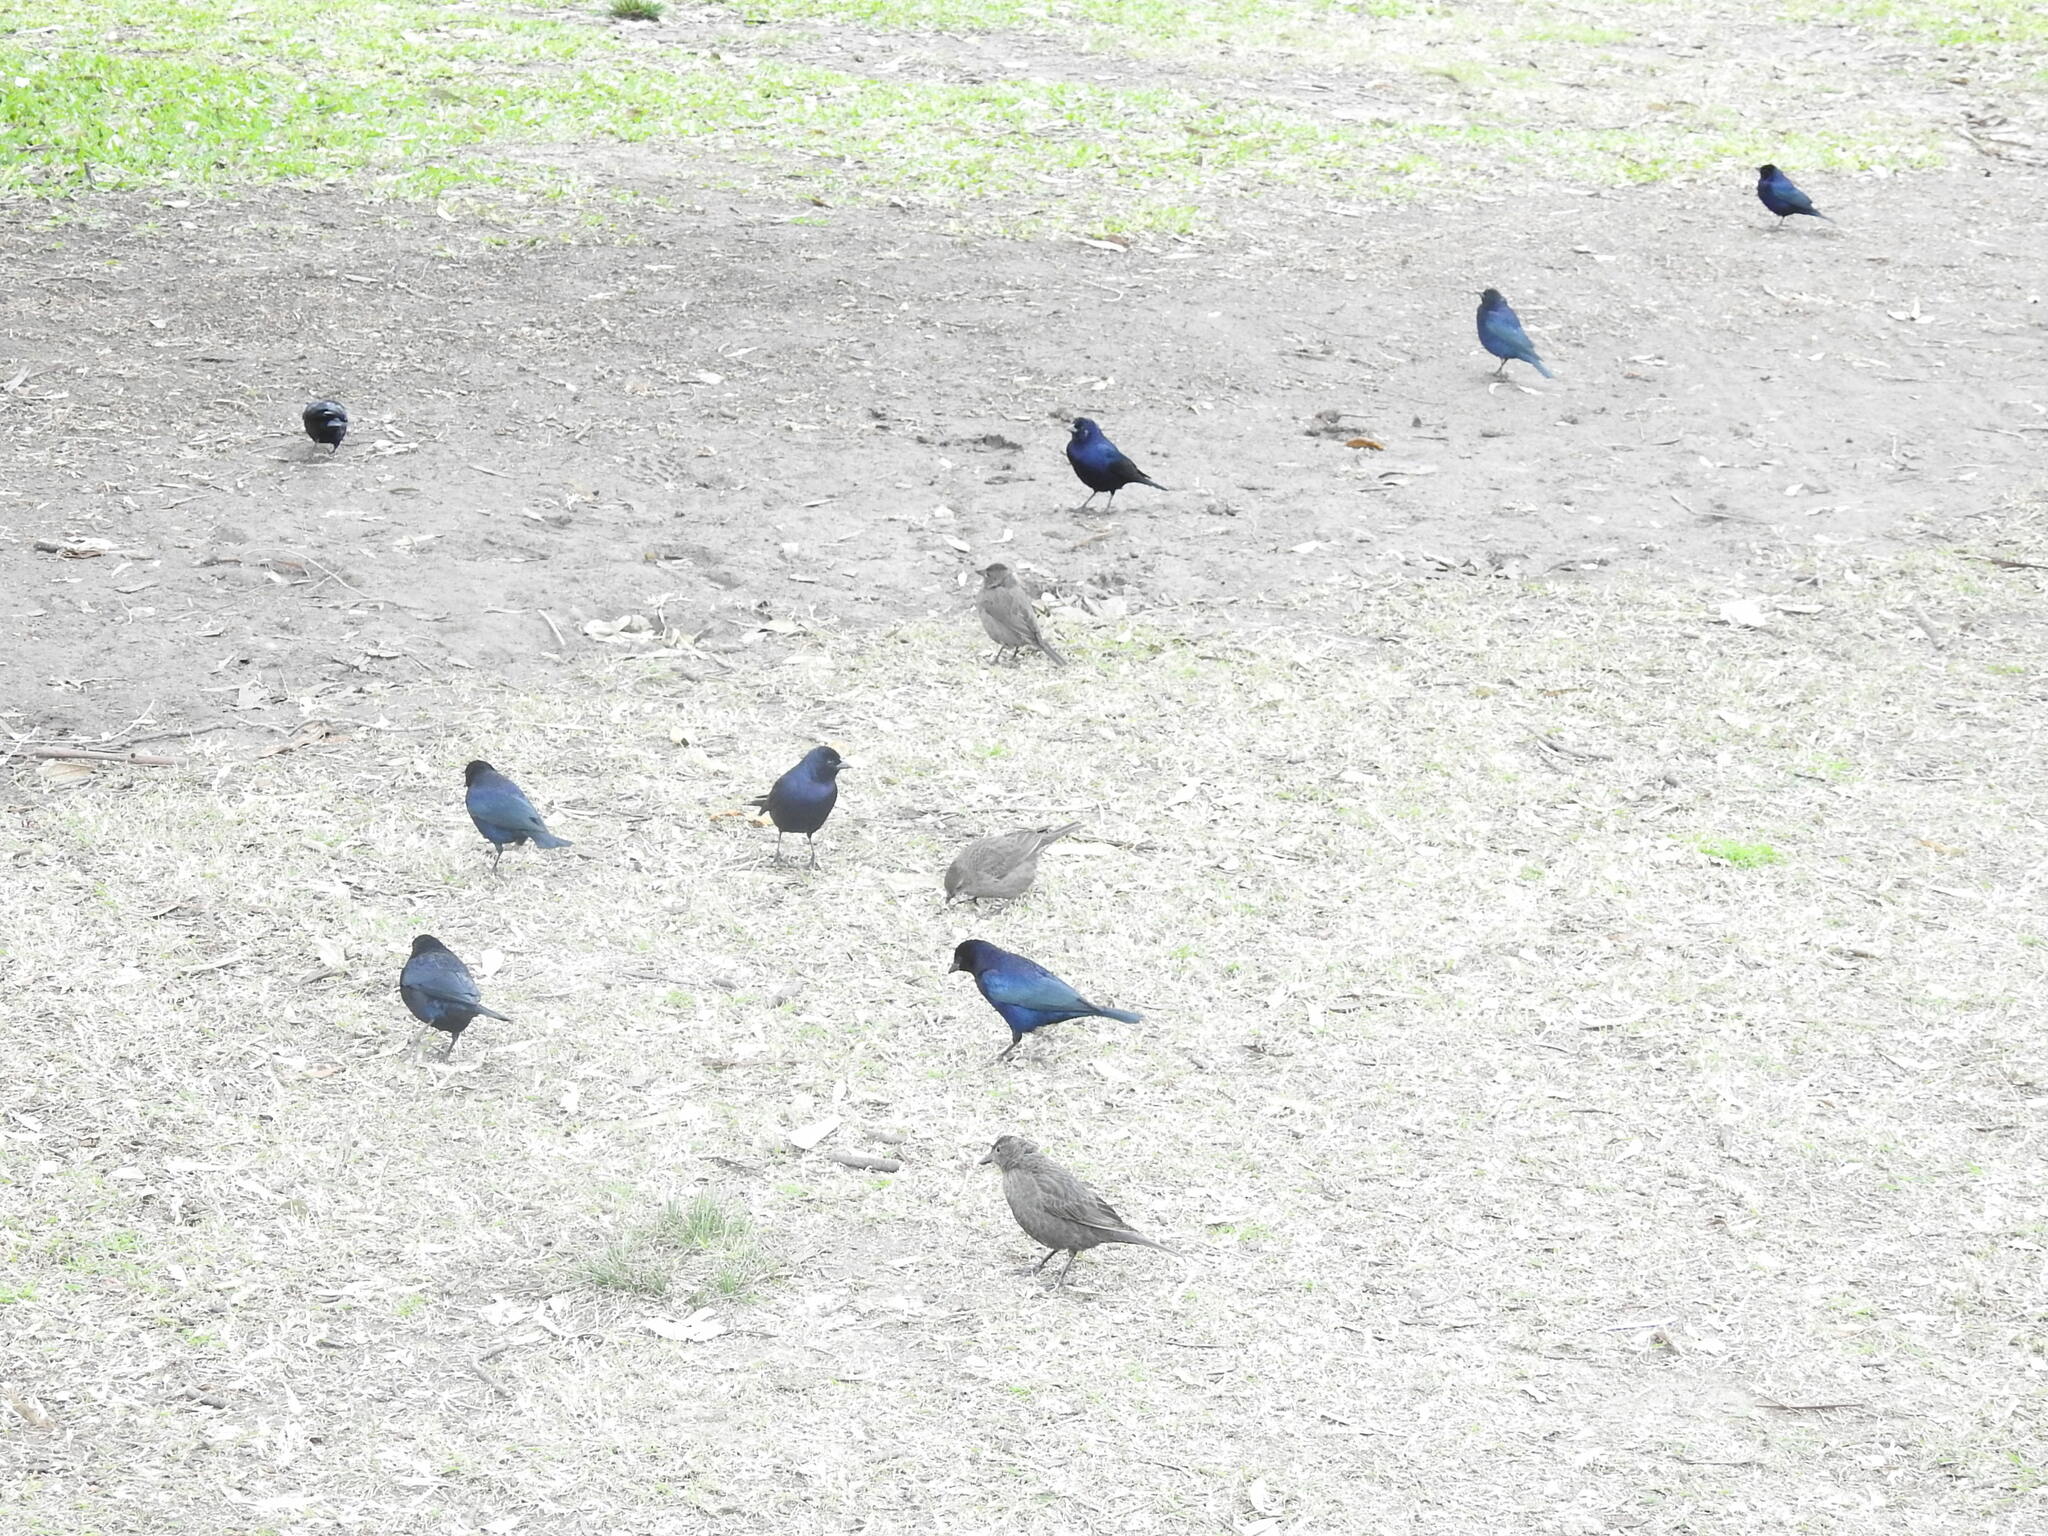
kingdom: Animalia
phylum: Chordata
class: Aves
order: Passeriformes
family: Icteridae
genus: Molothrus
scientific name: Molothrus bonariensis
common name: Shiny cowbird
